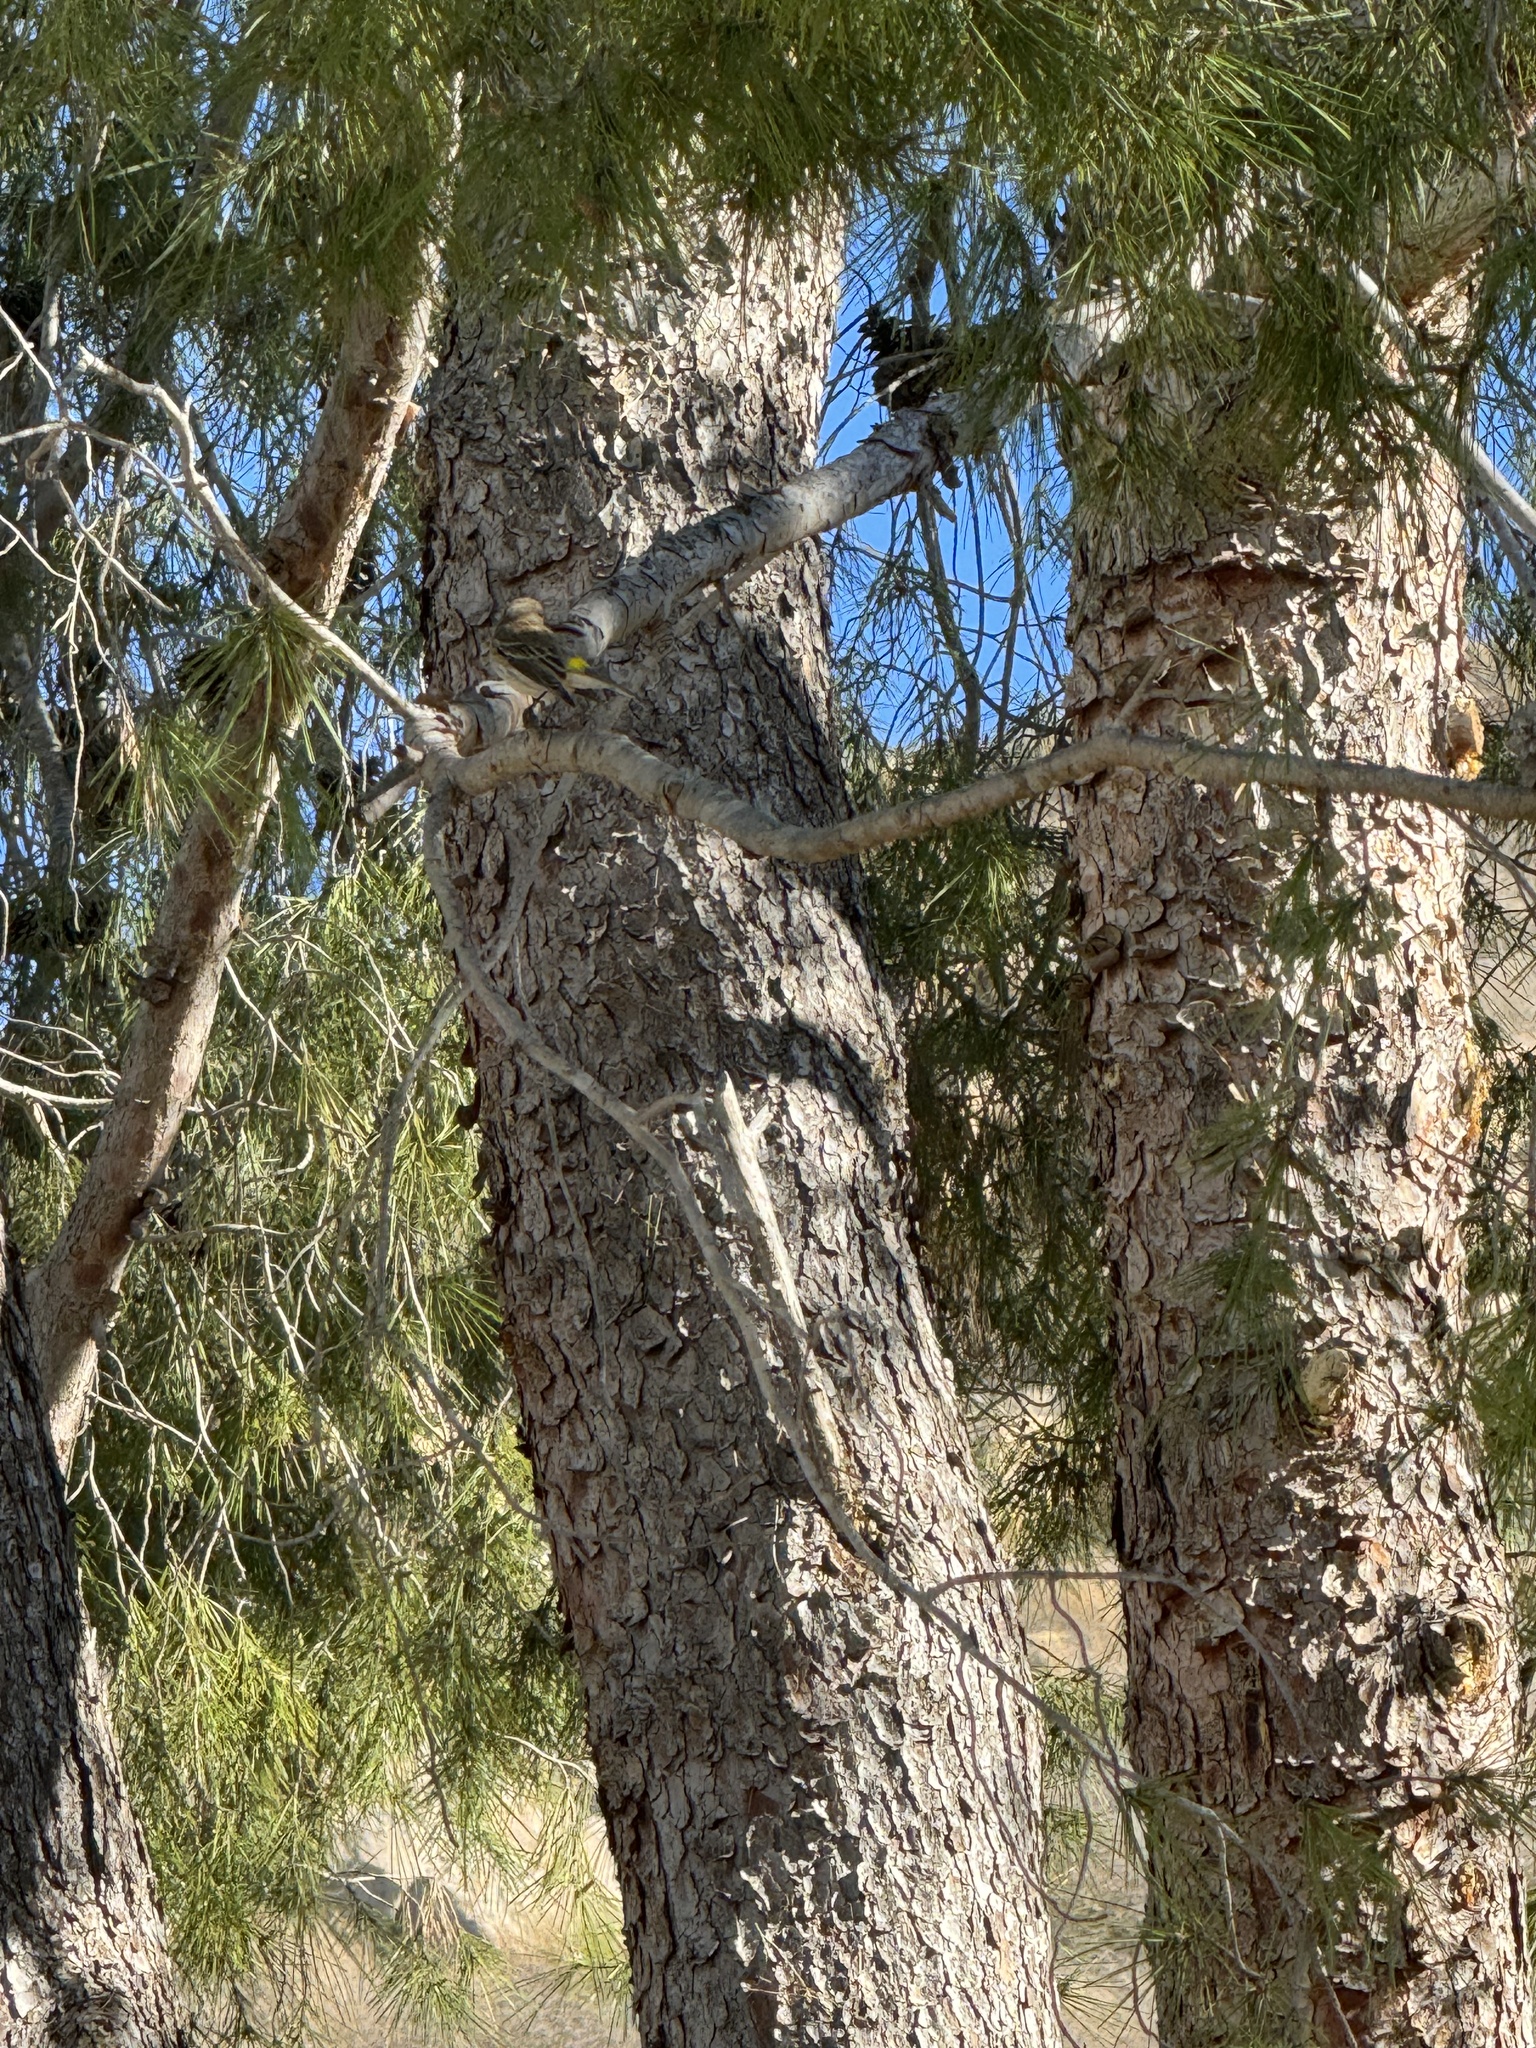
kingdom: Animalia
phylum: Chordata
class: Aves
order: Passeriformes
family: Parulidae
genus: Setophaga
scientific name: Setophaga coronata
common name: Myrtle warbler
